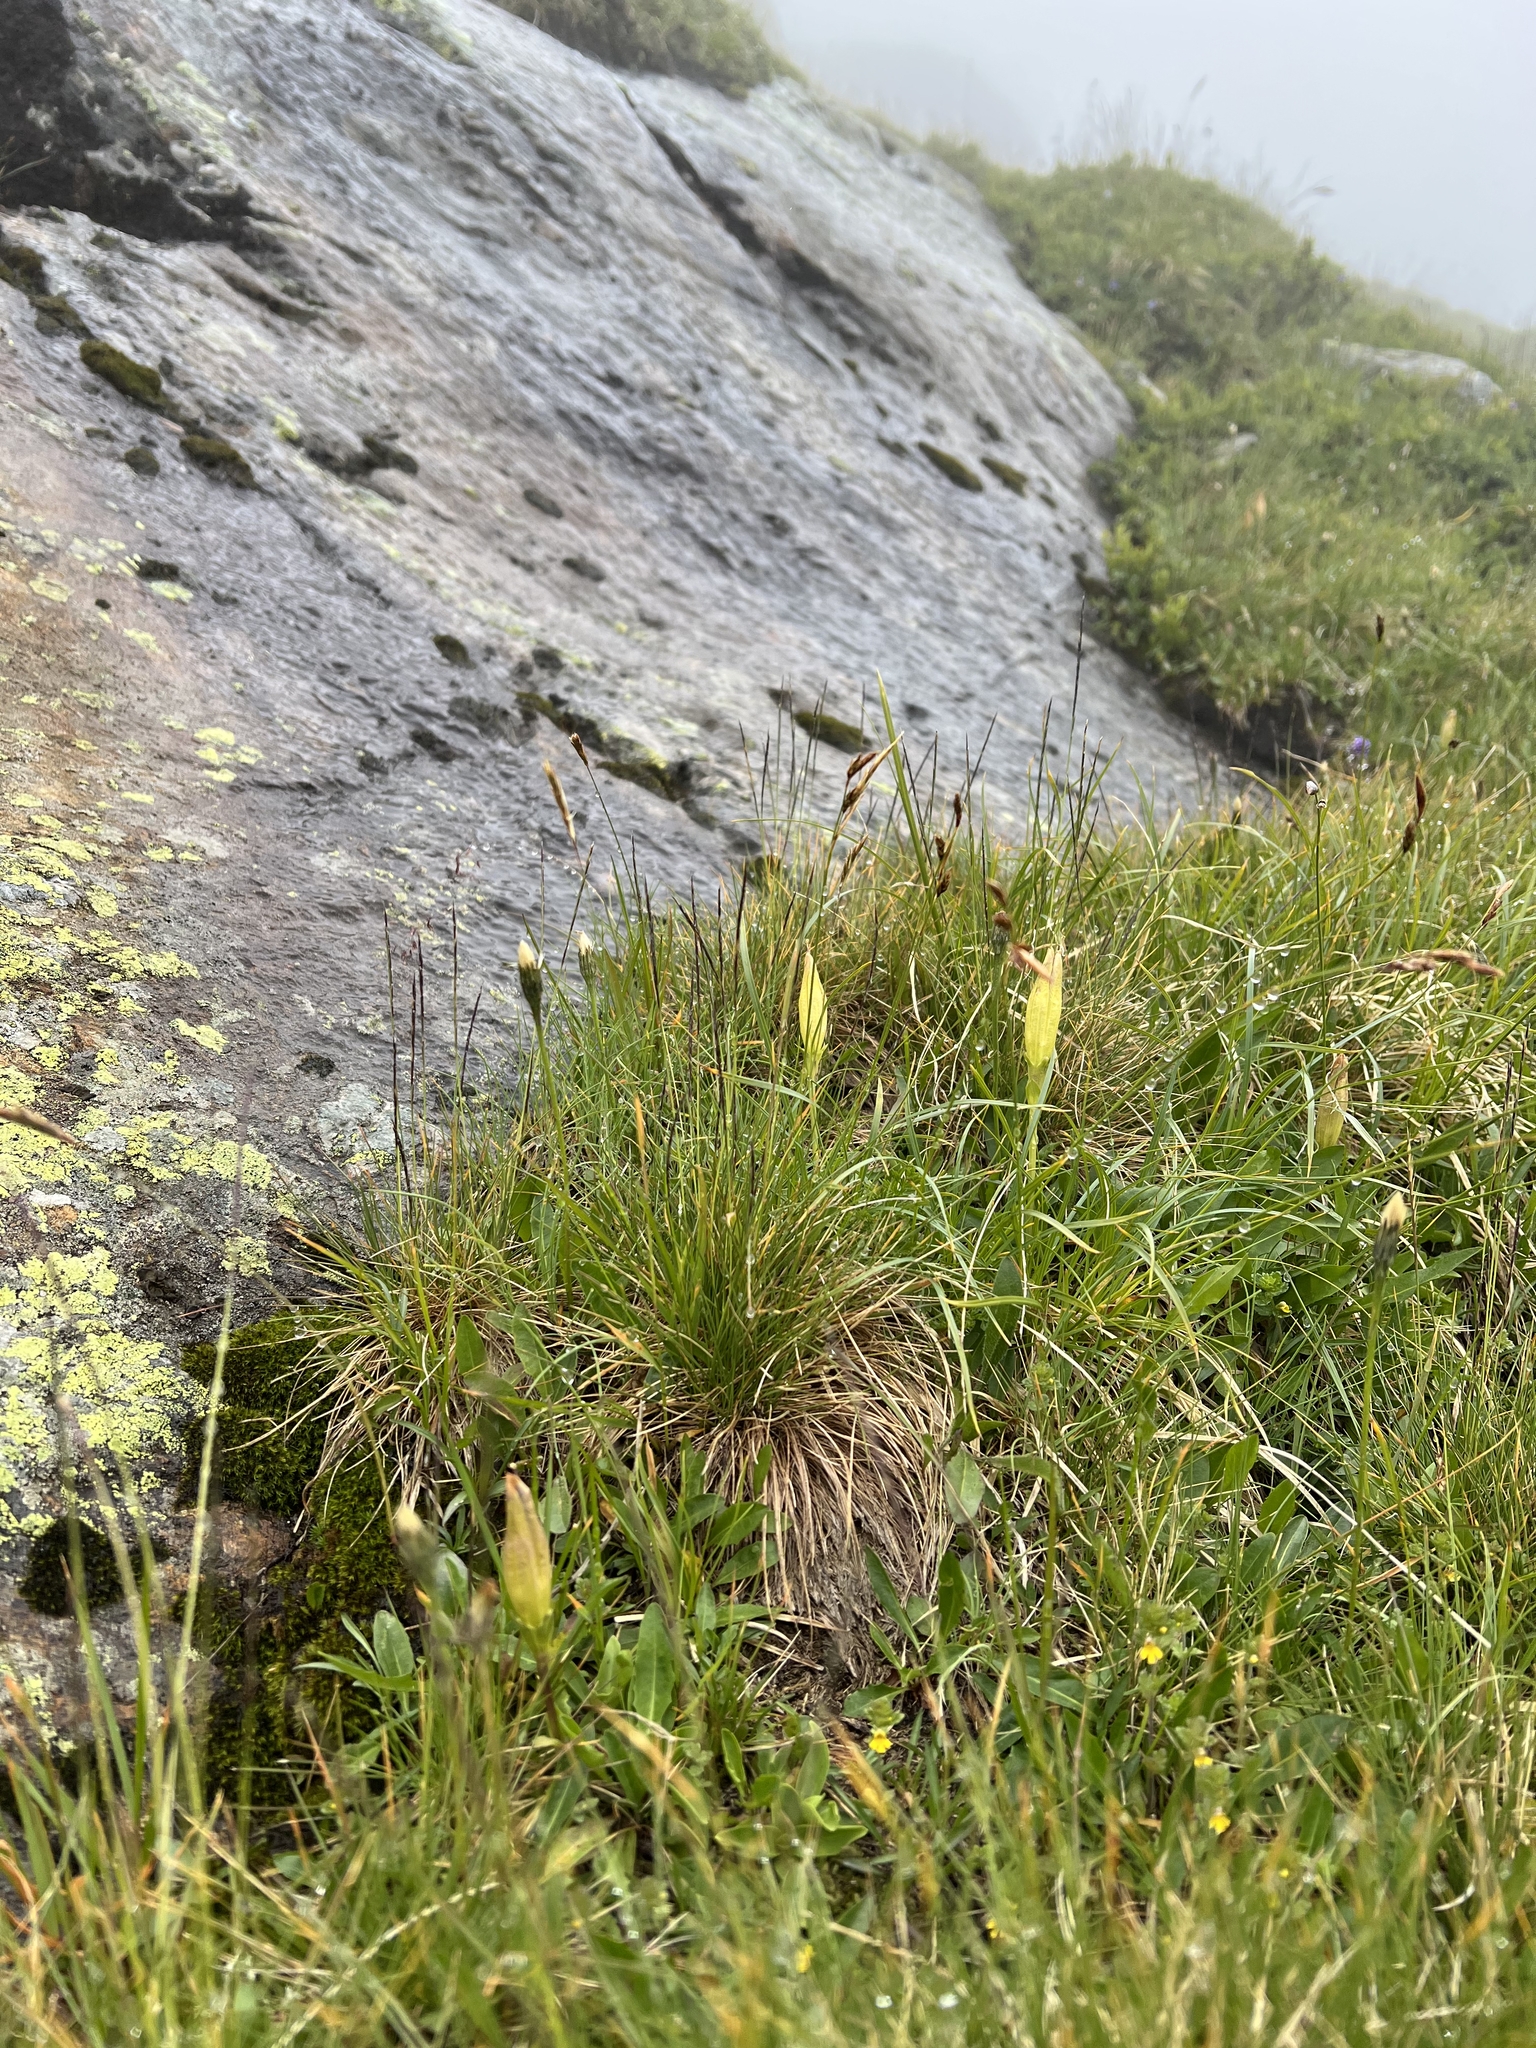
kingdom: Plantae
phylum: Tracheophyta
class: Magnoliopsida
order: Gentianales
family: Gentianaceae
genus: Gentiana
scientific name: Gentiana acaulis
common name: Trumpet gentian
